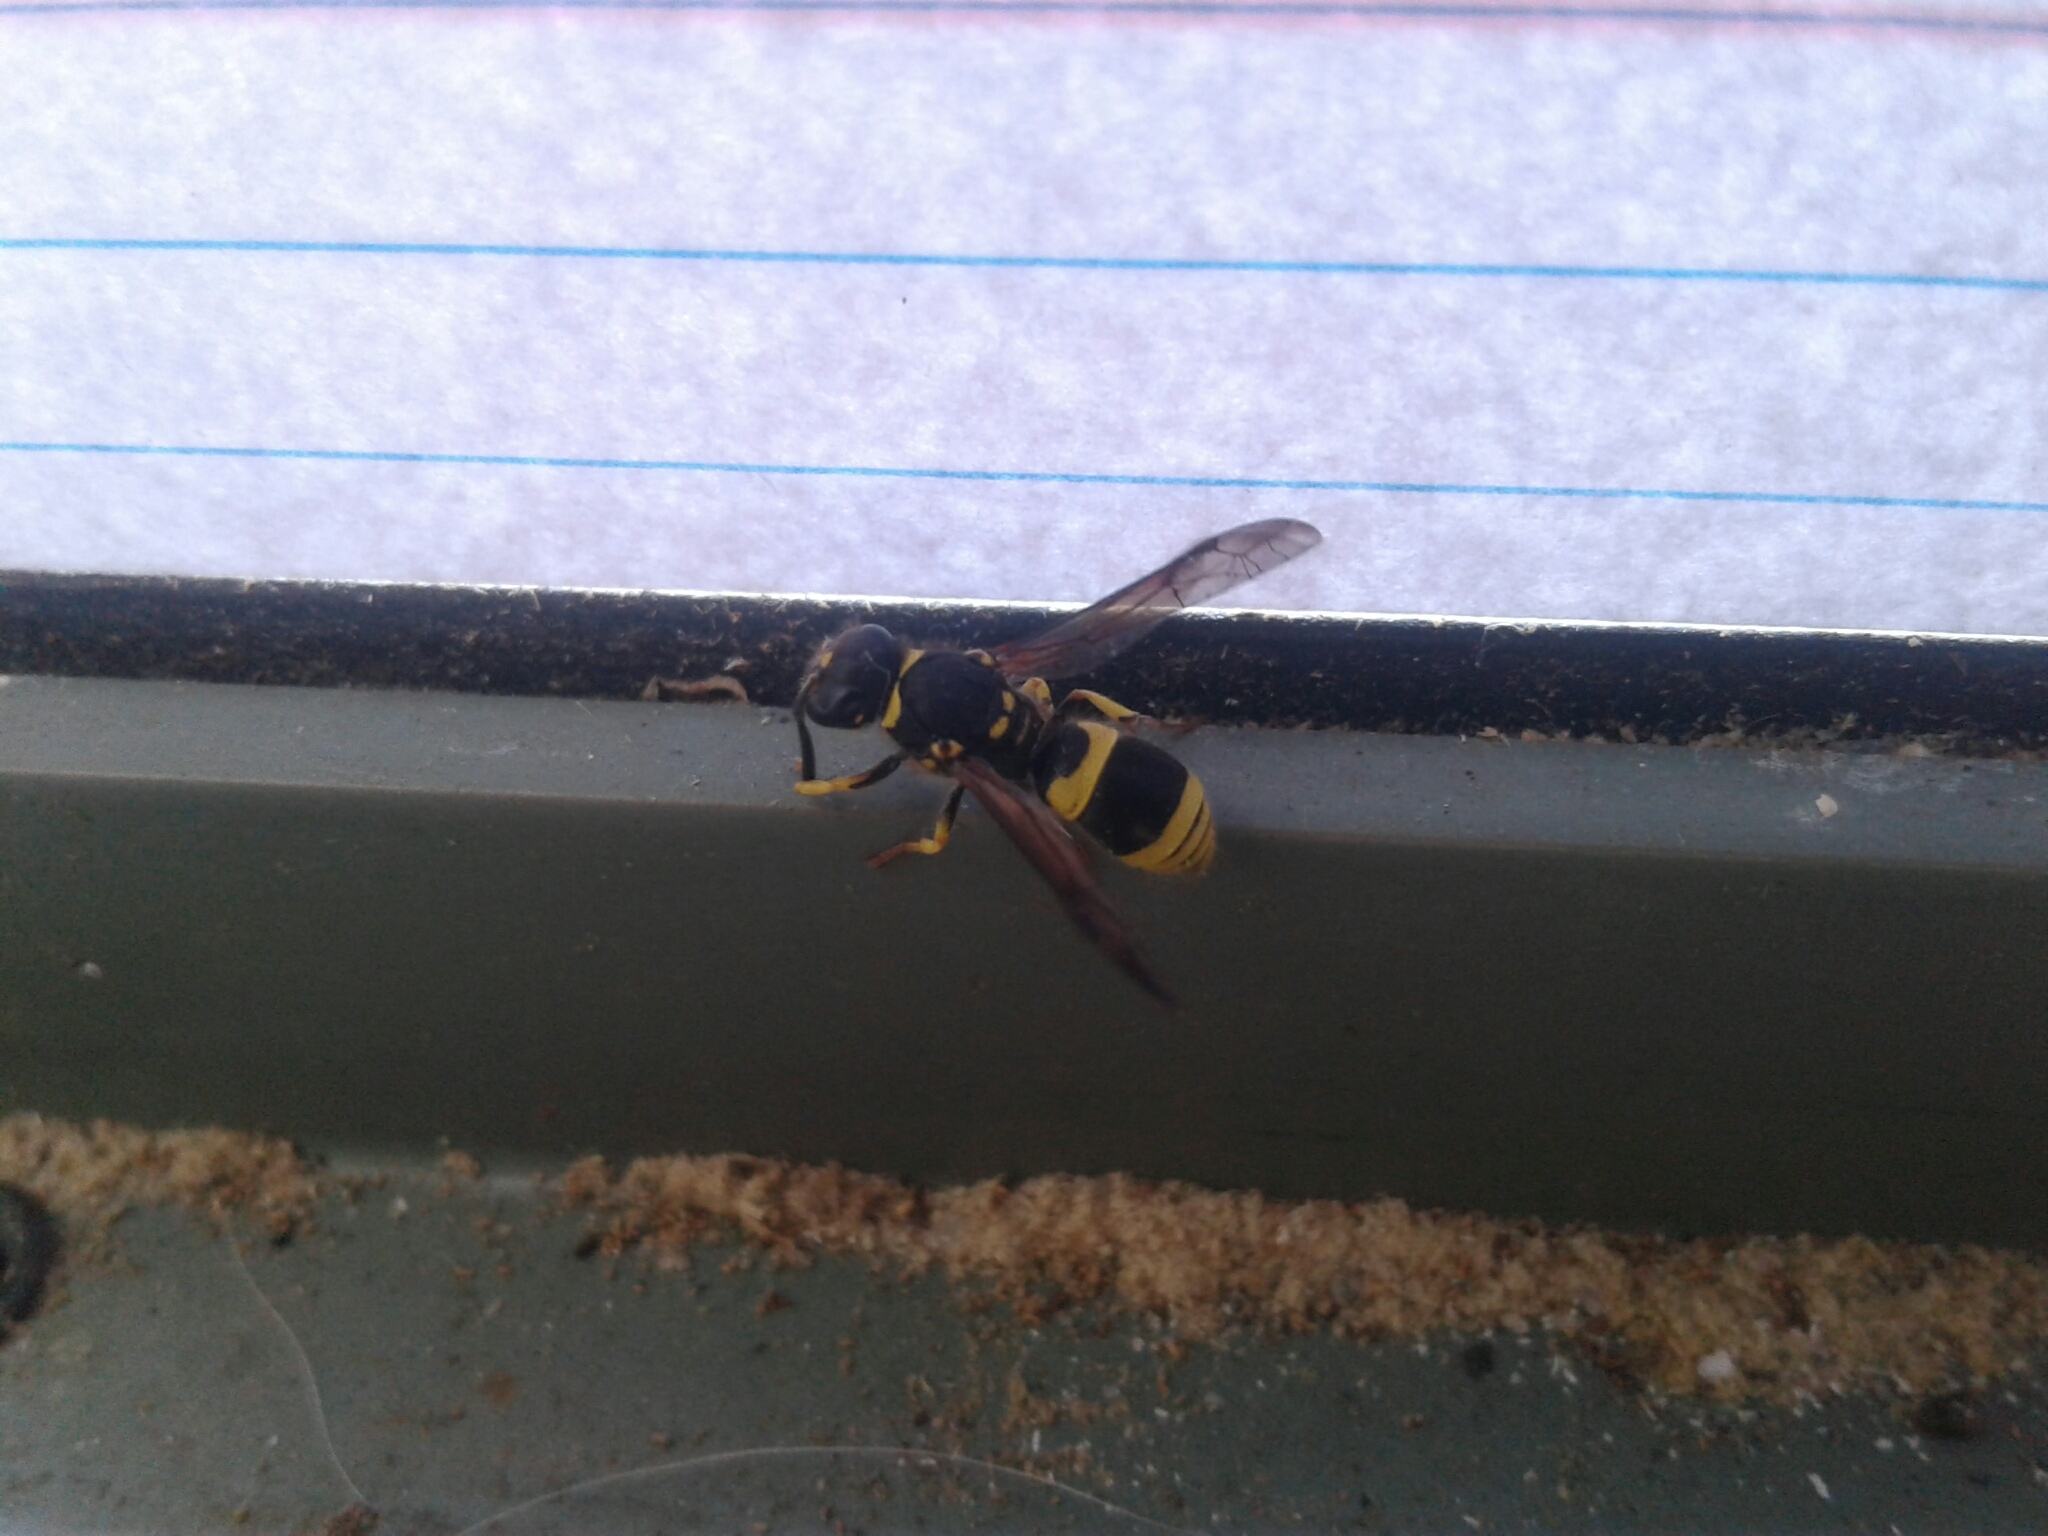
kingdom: Animalia
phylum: Arthropoda
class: Insecta
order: Hymenoptera
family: Vespidae
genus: Ancistrocerus
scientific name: Ancistrocerus gazella
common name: European tube wasp
